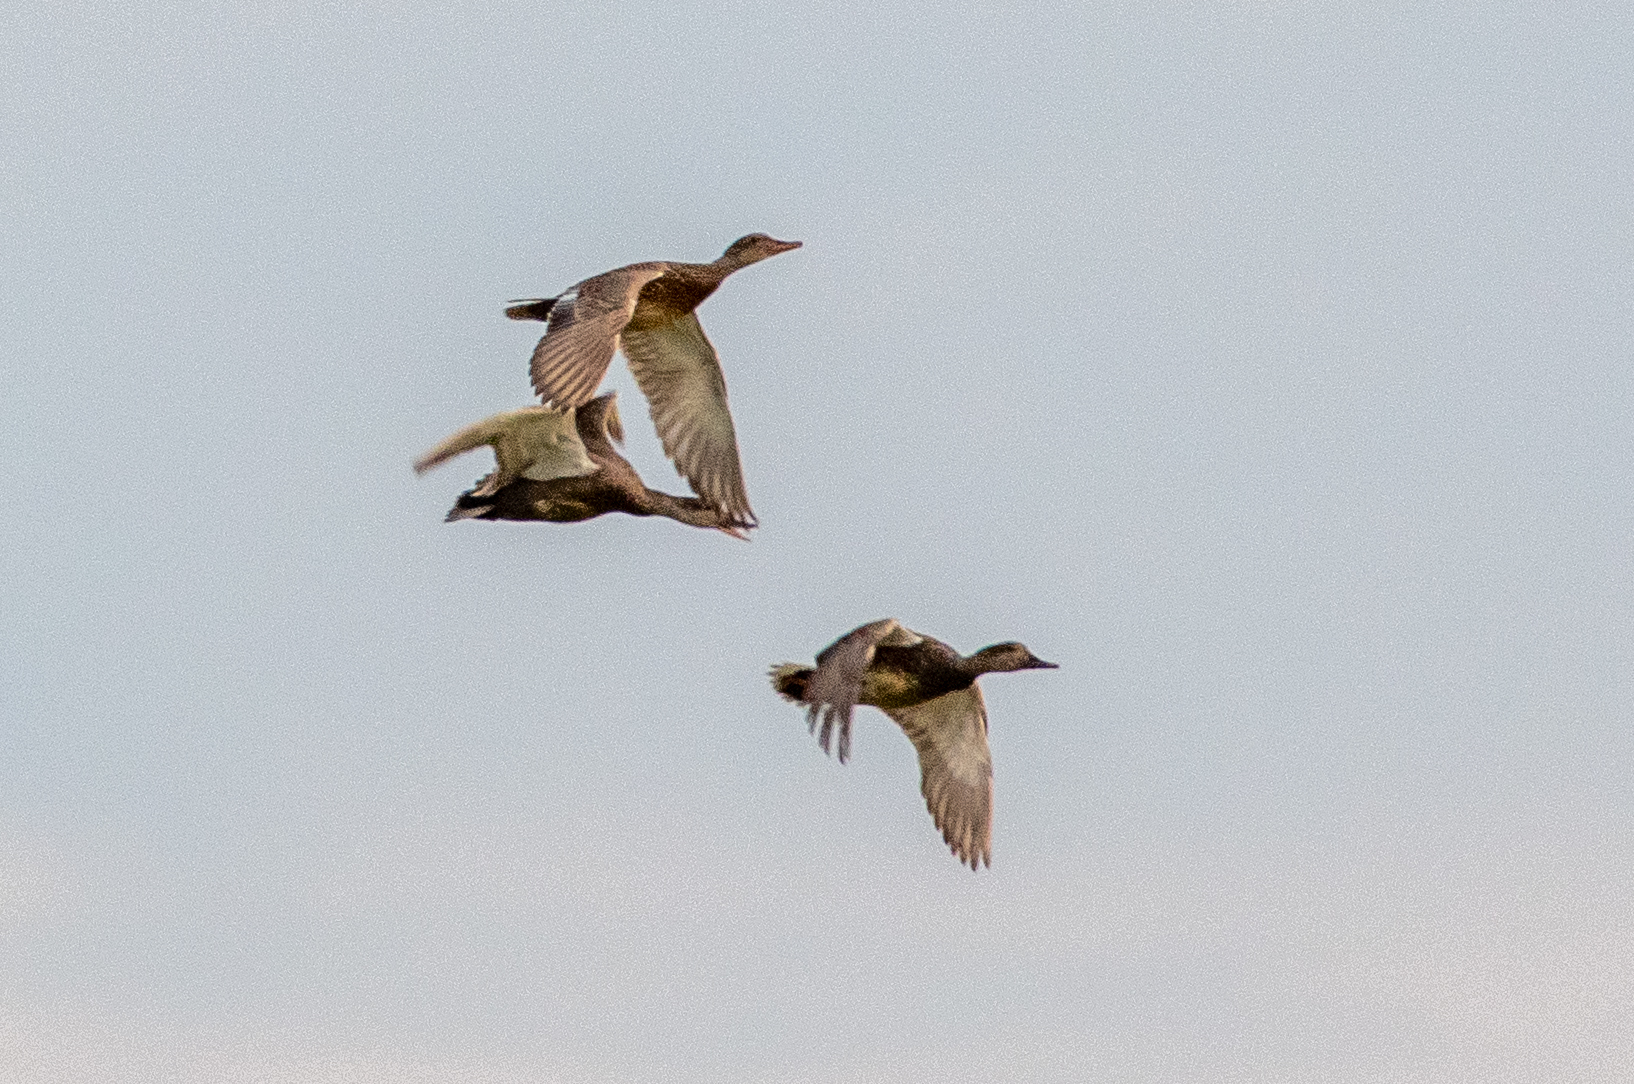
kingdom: Animalia
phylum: Chordata
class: Aves
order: Anseriformes
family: Anatidae
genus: Mareca
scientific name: Mareca strepera
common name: Gadwall
